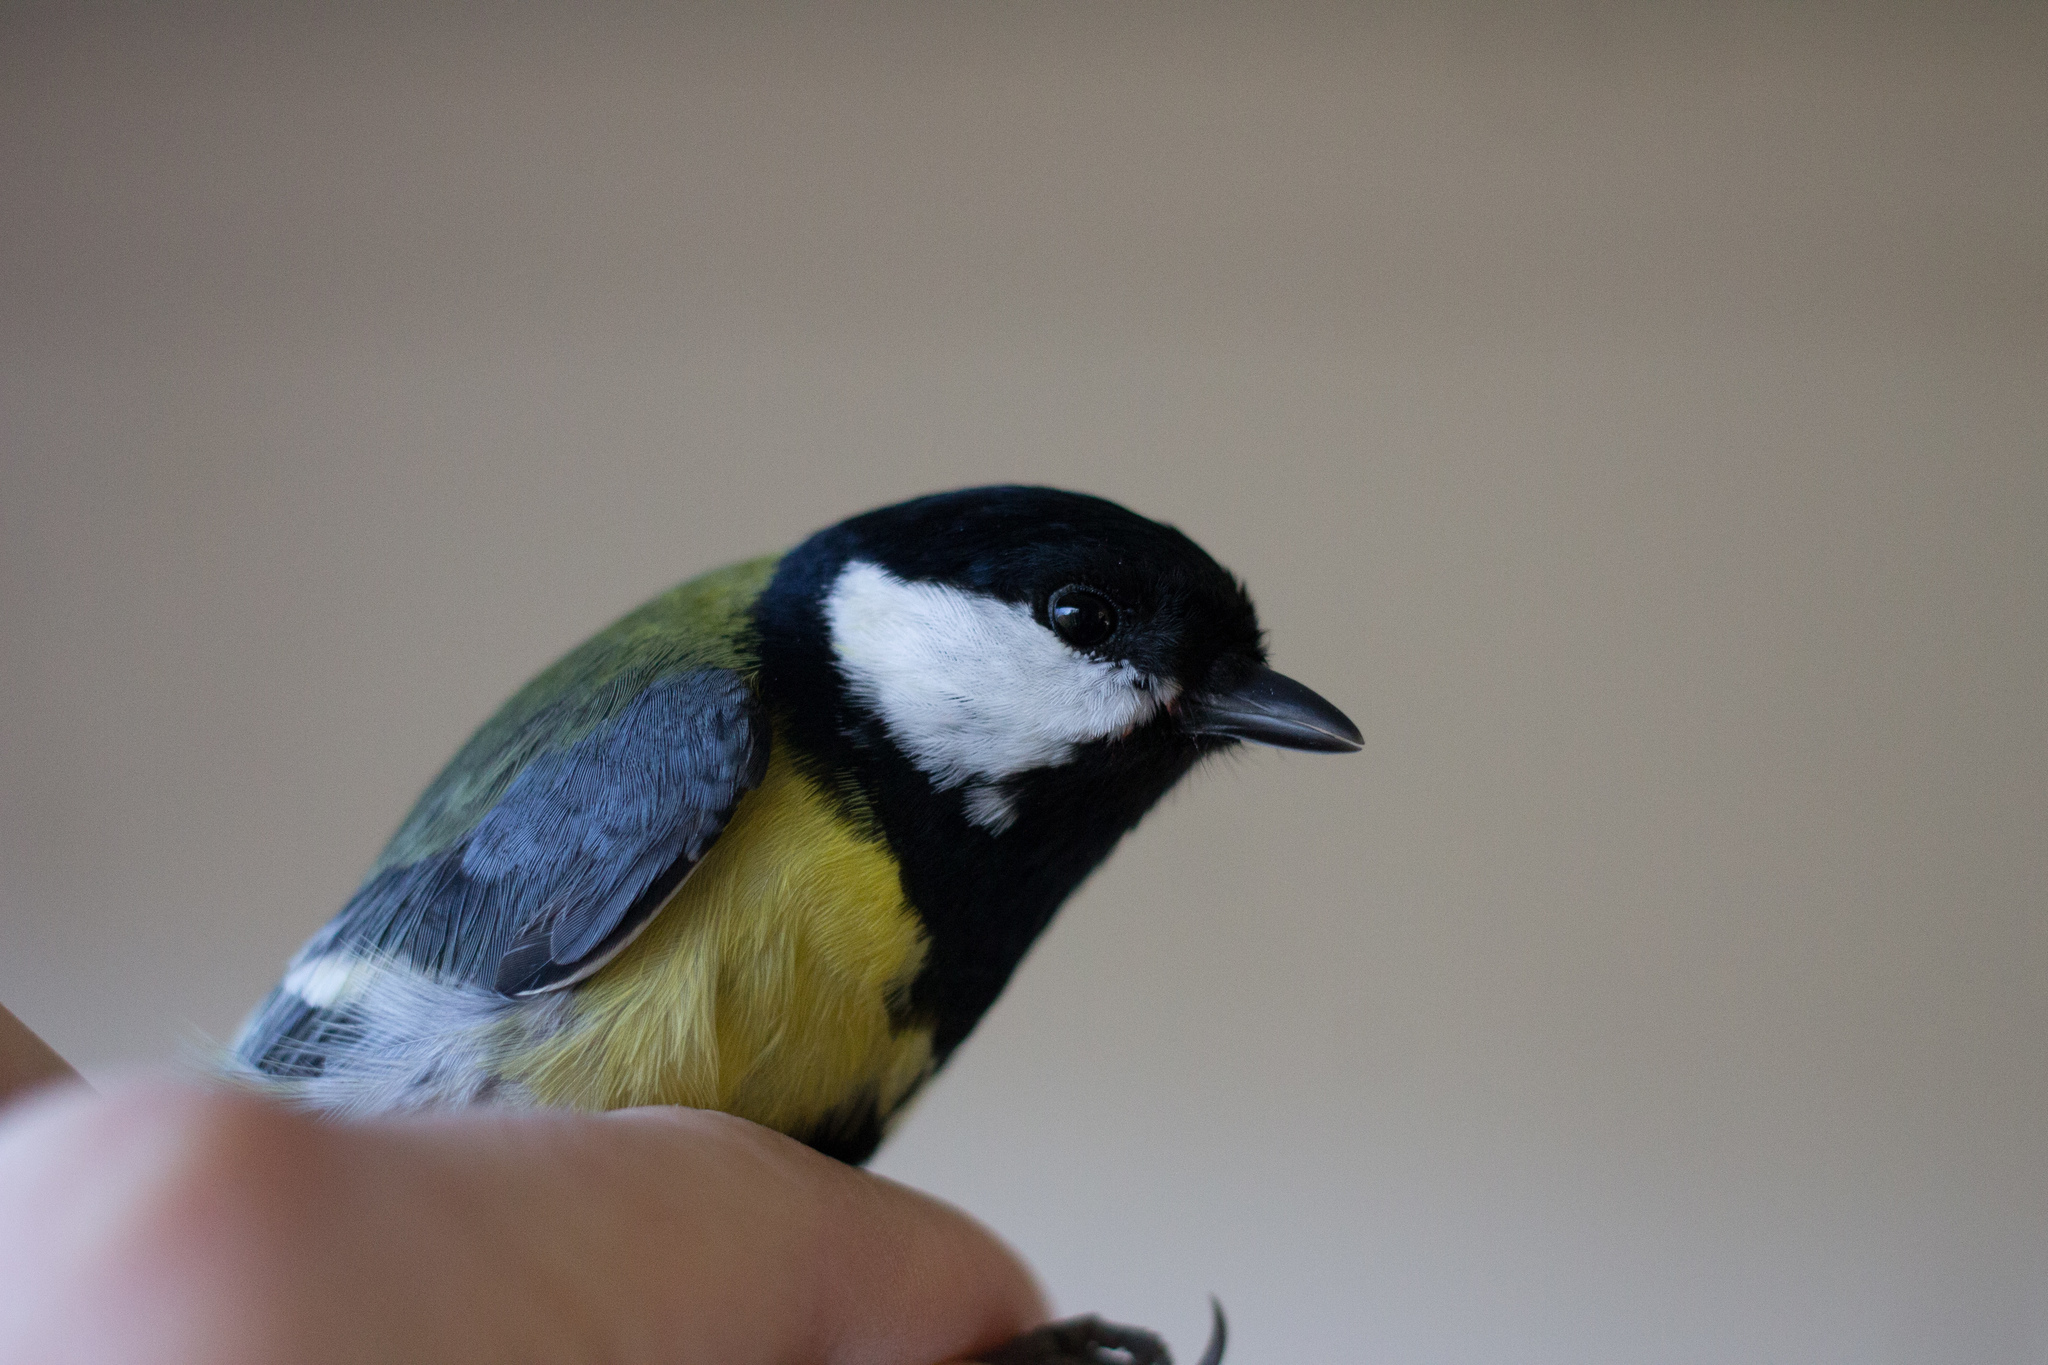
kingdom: Animalia
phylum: Chordata
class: Aves
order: Passeriformes
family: Paridae
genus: Parus
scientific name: Parus major
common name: Great tit
